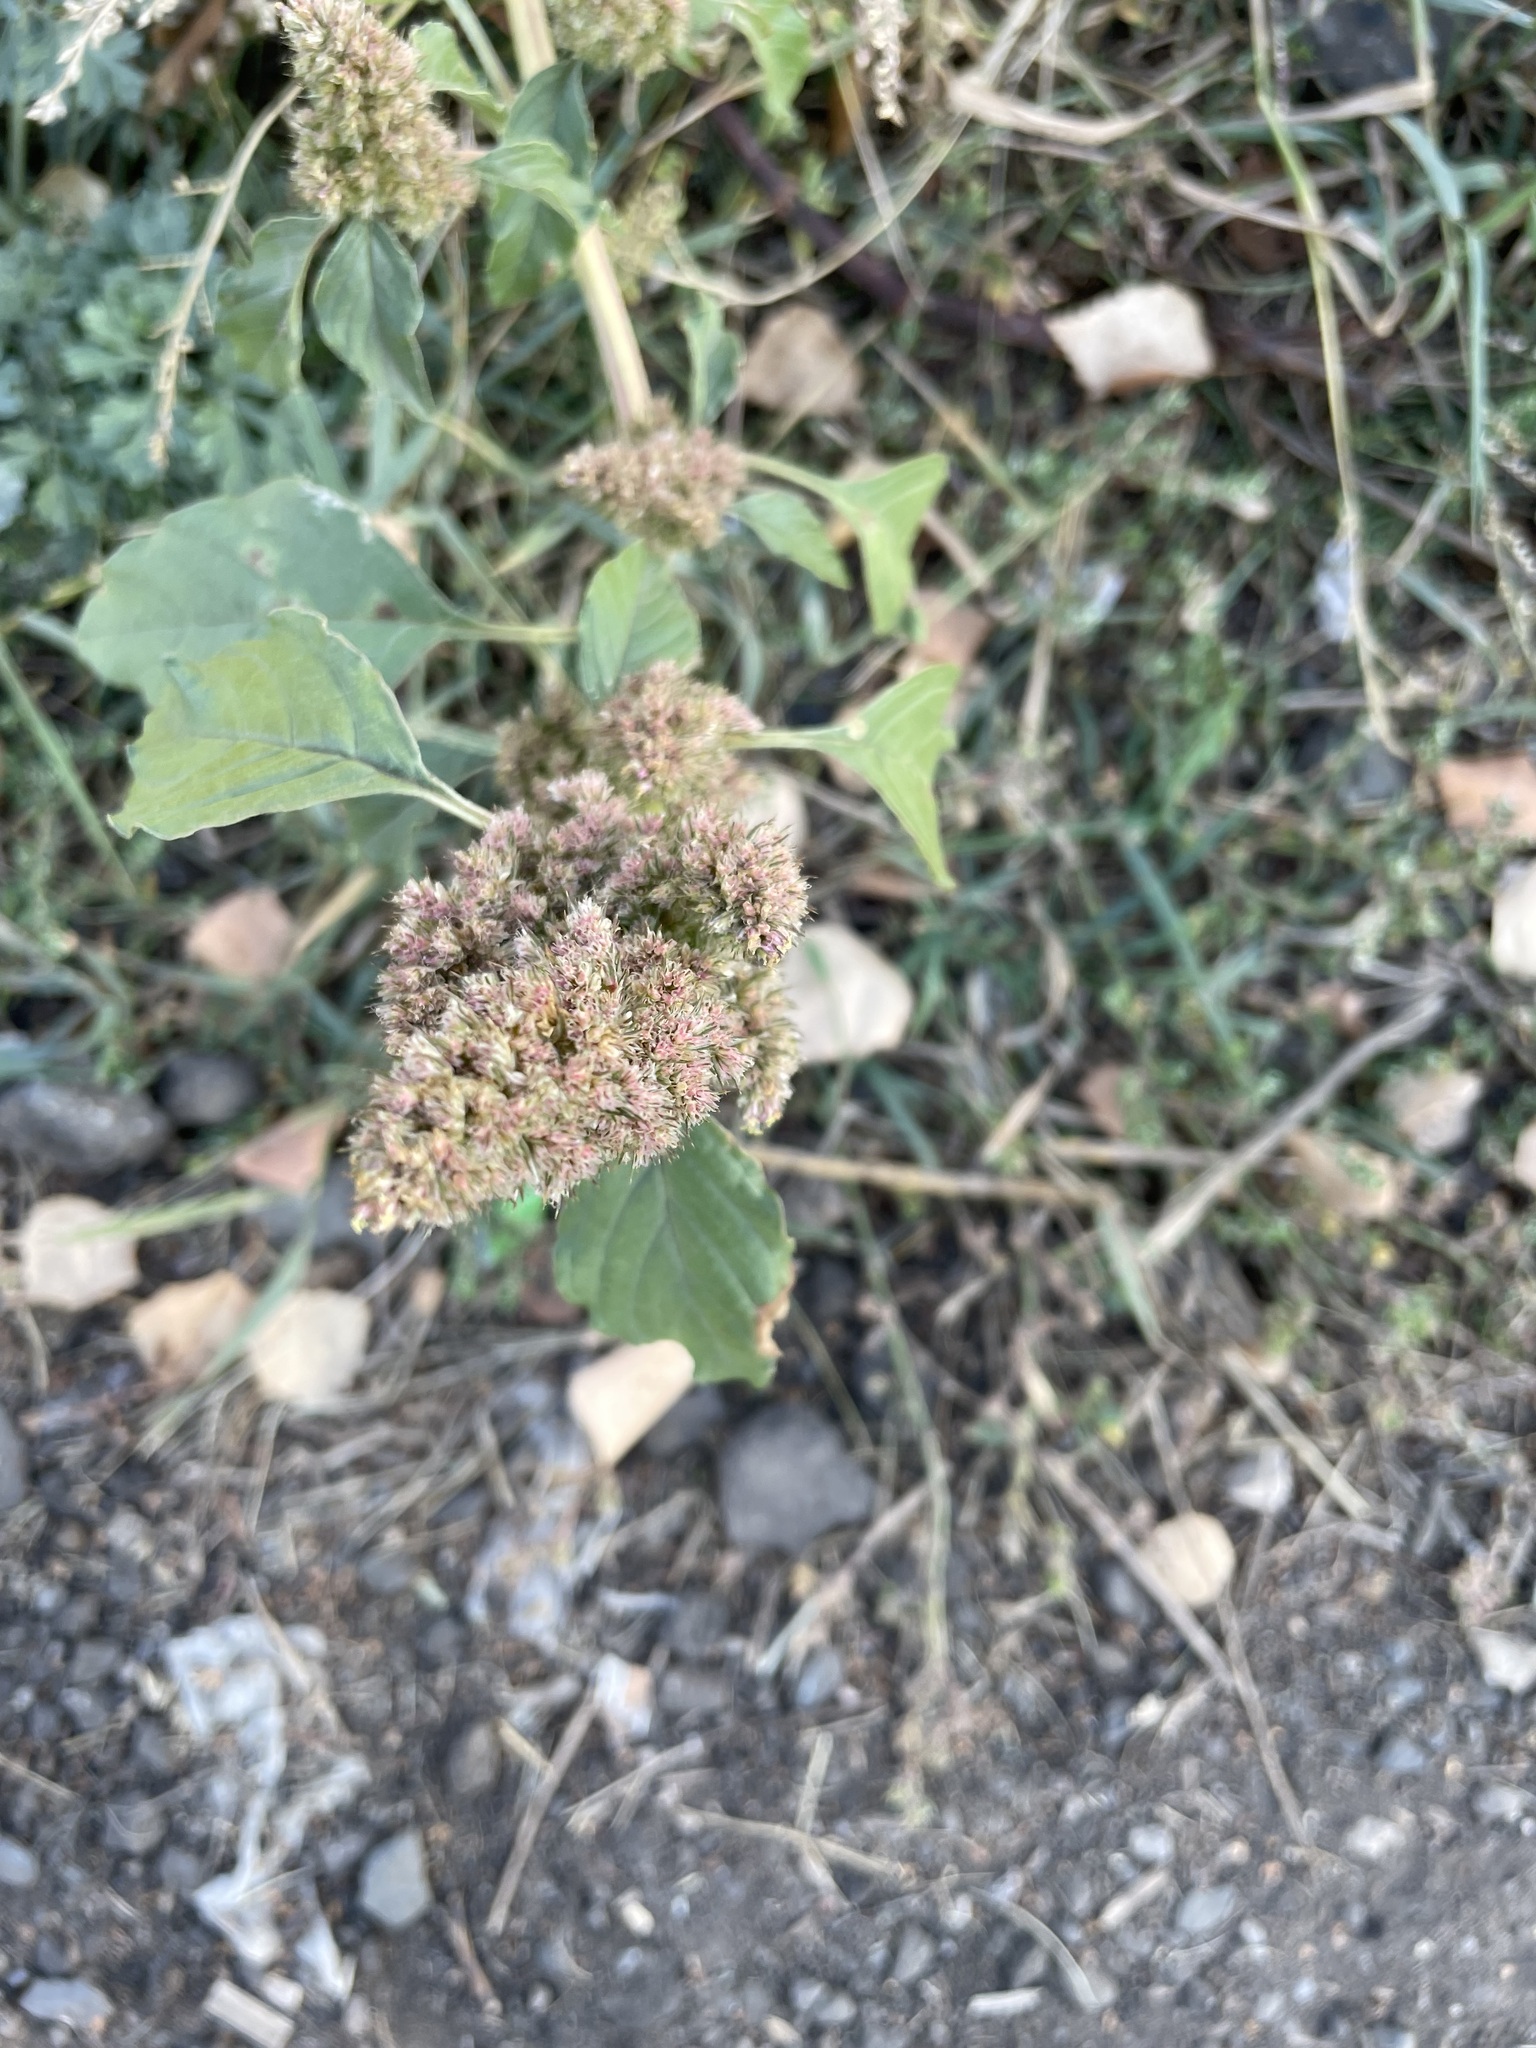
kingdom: Plantae
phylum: Tracheophyta
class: Magnoliopsida
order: Caryophyllales
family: Amaranthaceae
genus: Amaranthus
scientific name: Amaranthus retroflexus
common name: Redroot amaranth
